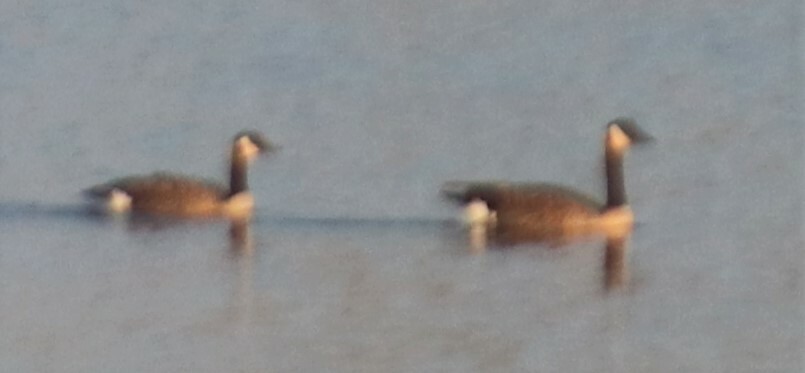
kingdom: Animalia
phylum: Chordata
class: Aves
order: Anseriformes
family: Anatidae
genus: Branta
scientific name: Branta canadensis
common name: Canada goose
